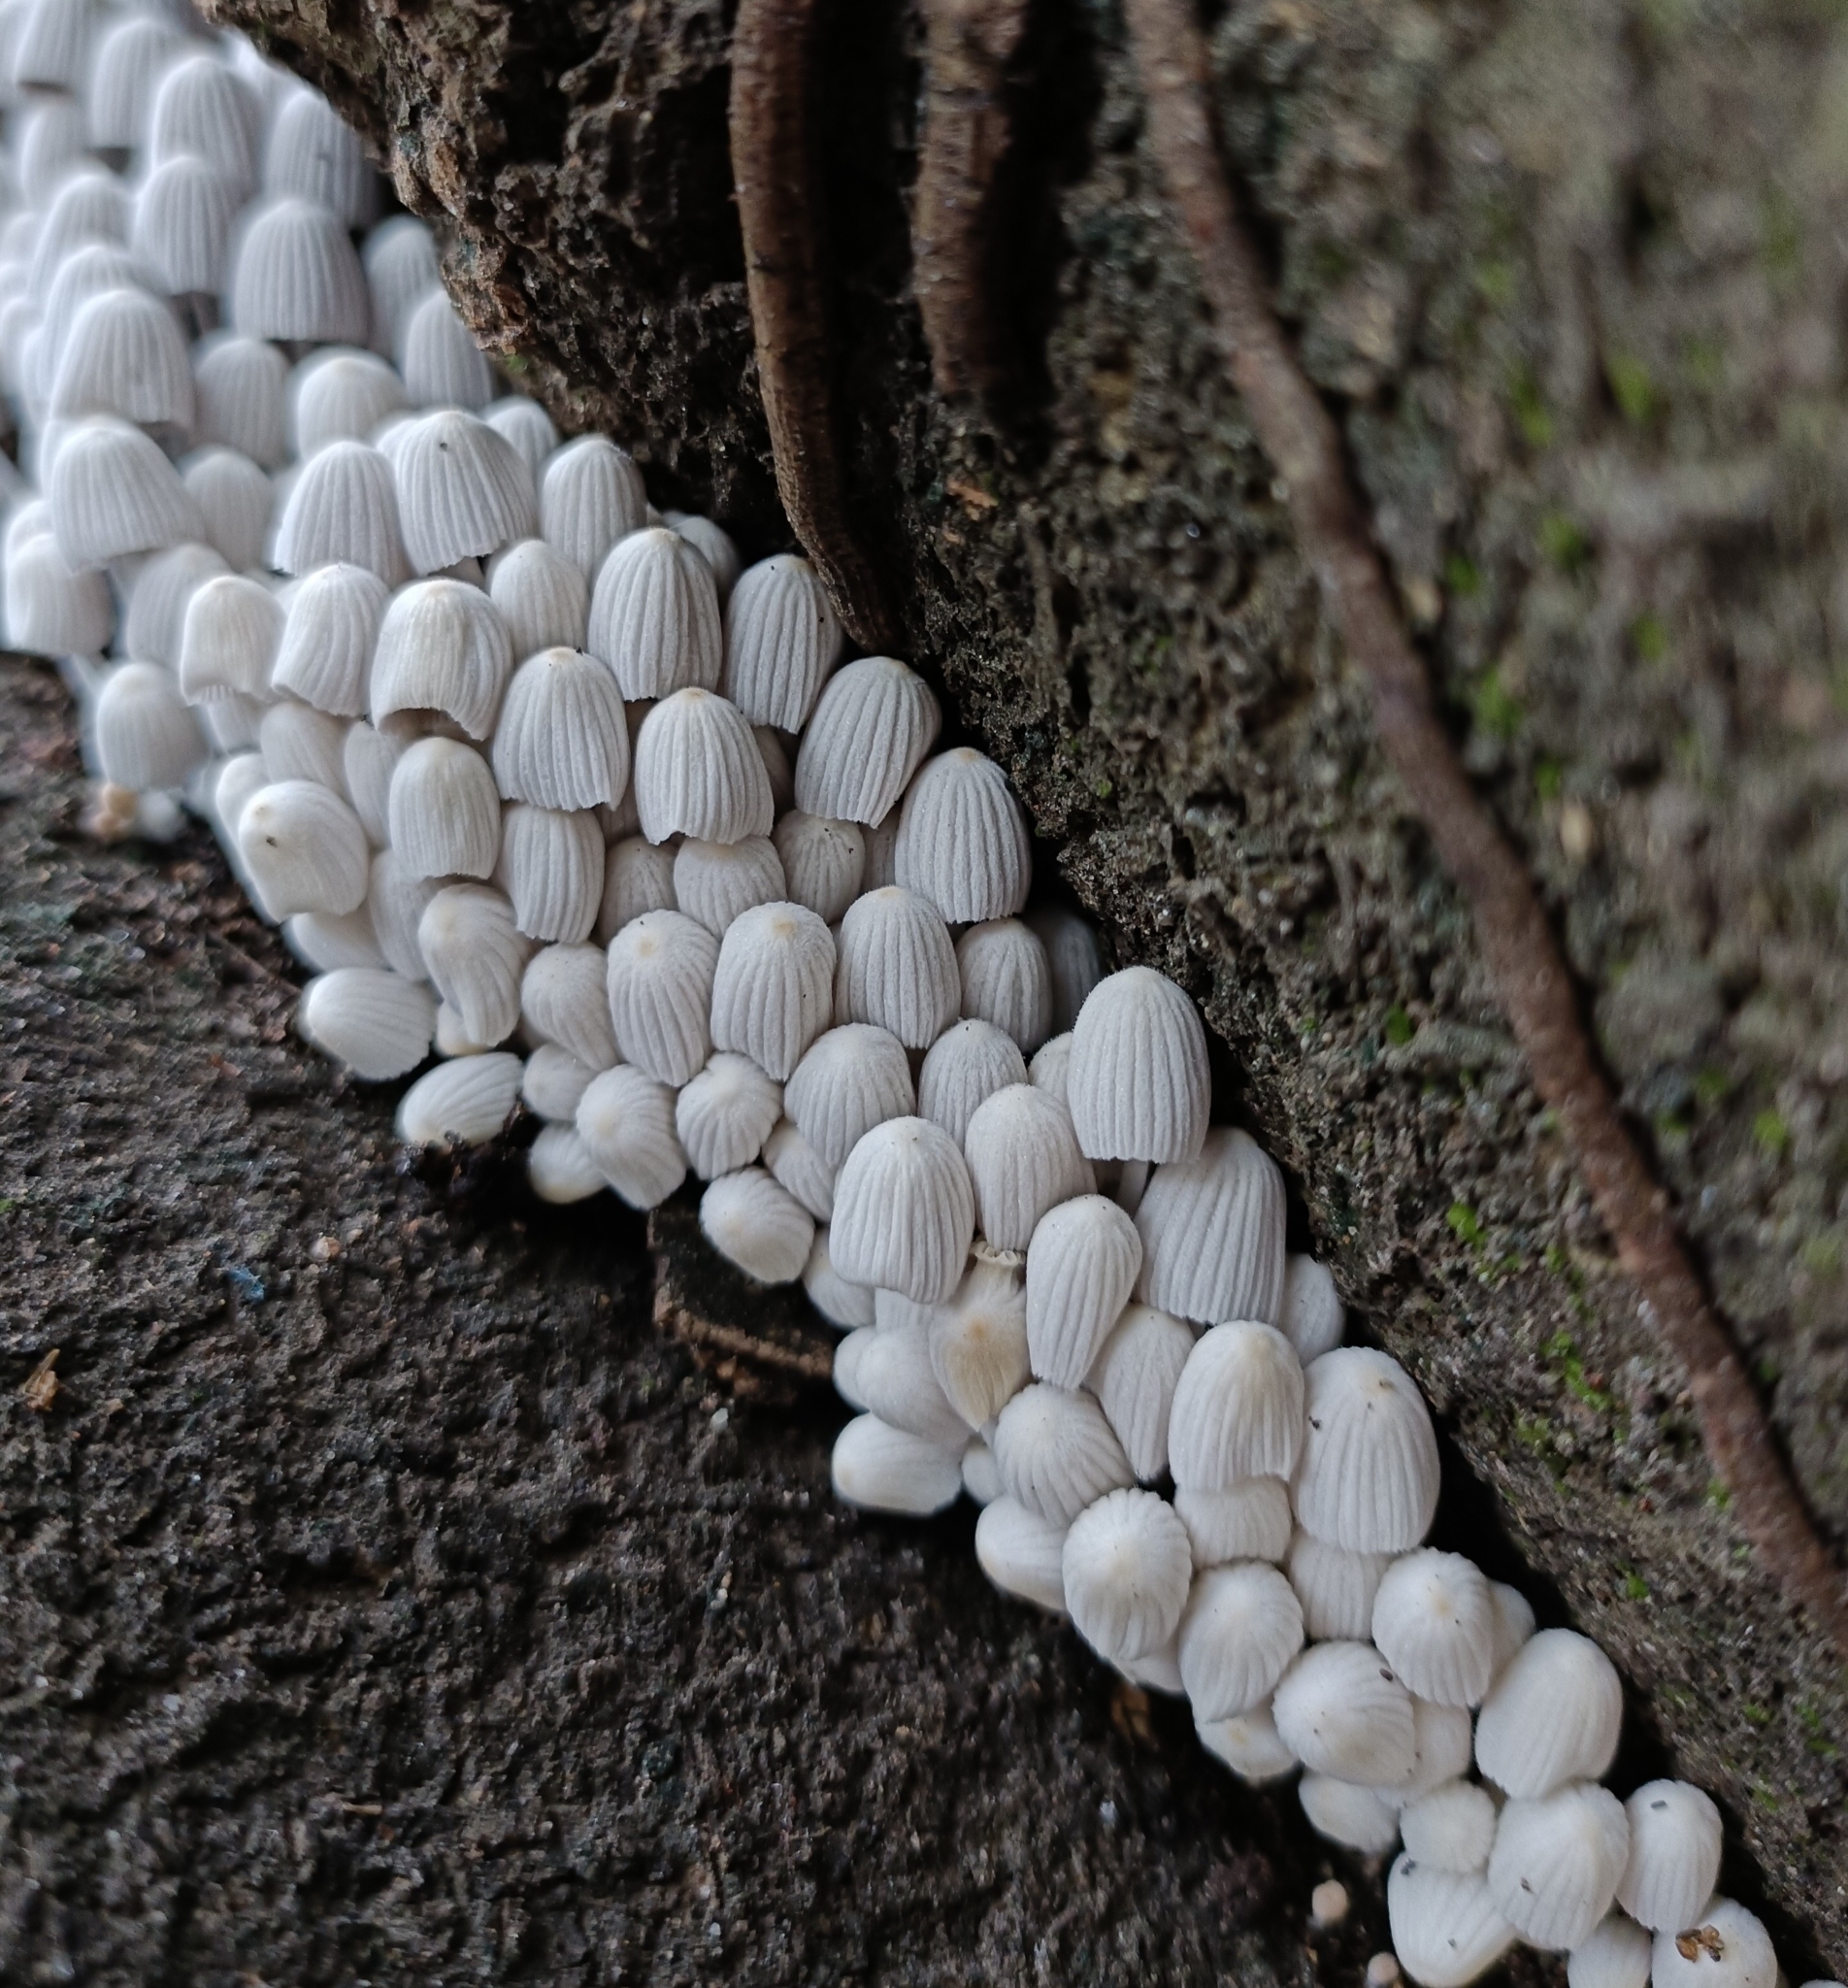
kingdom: Fungi
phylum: Basidiomycota
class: Agaricomycetes
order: Agaricales
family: Psathyrellaceae
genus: Coprinellus
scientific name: Coprinellus disseminatus
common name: Fairies' bonnets
